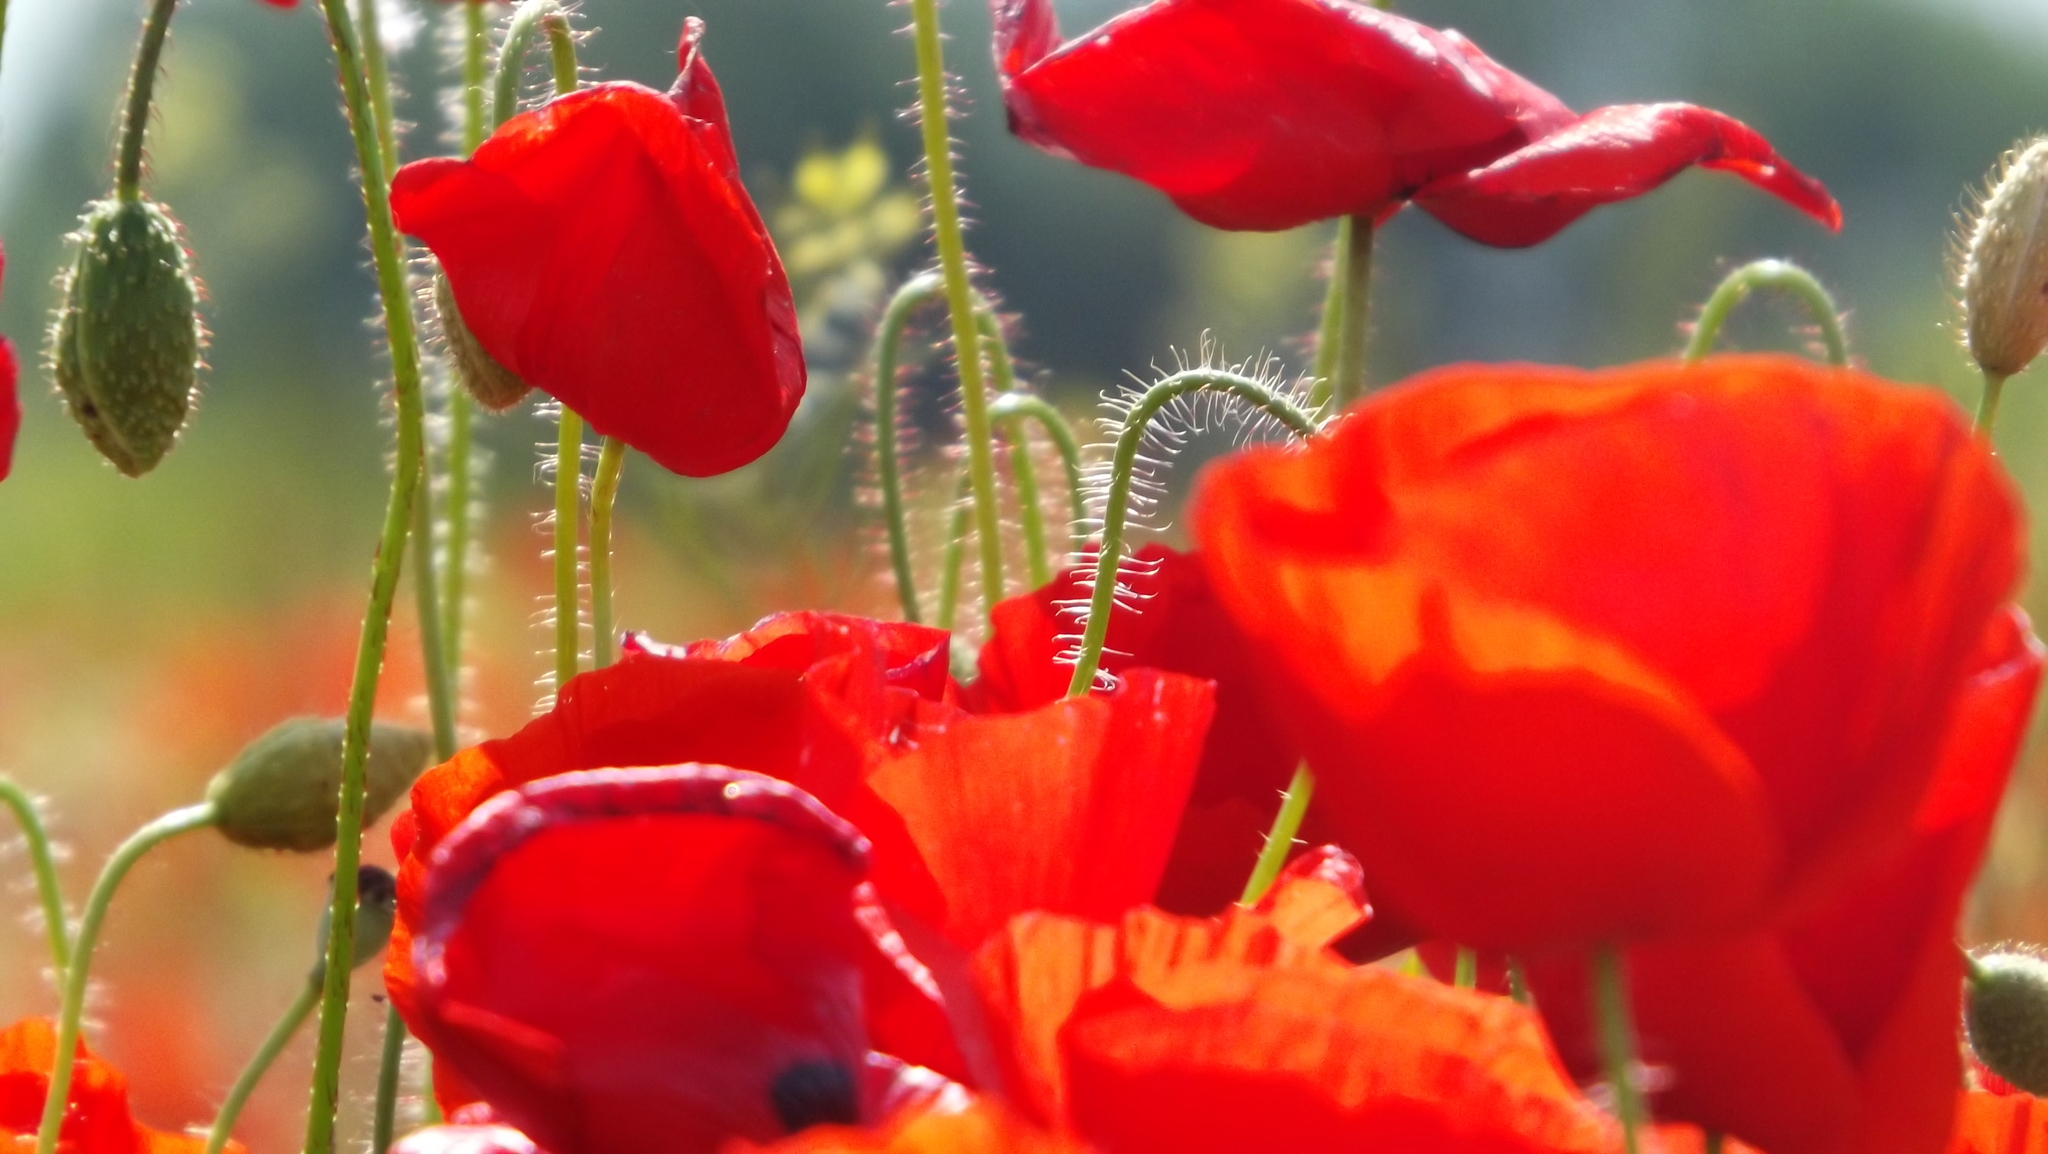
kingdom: Plantae
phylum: Tracheophyta
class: Magnoliopsida
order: Ranunculales
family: Papaveraceae
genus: Papaver
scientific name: Papaver rhoeas
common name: Corn poppy
